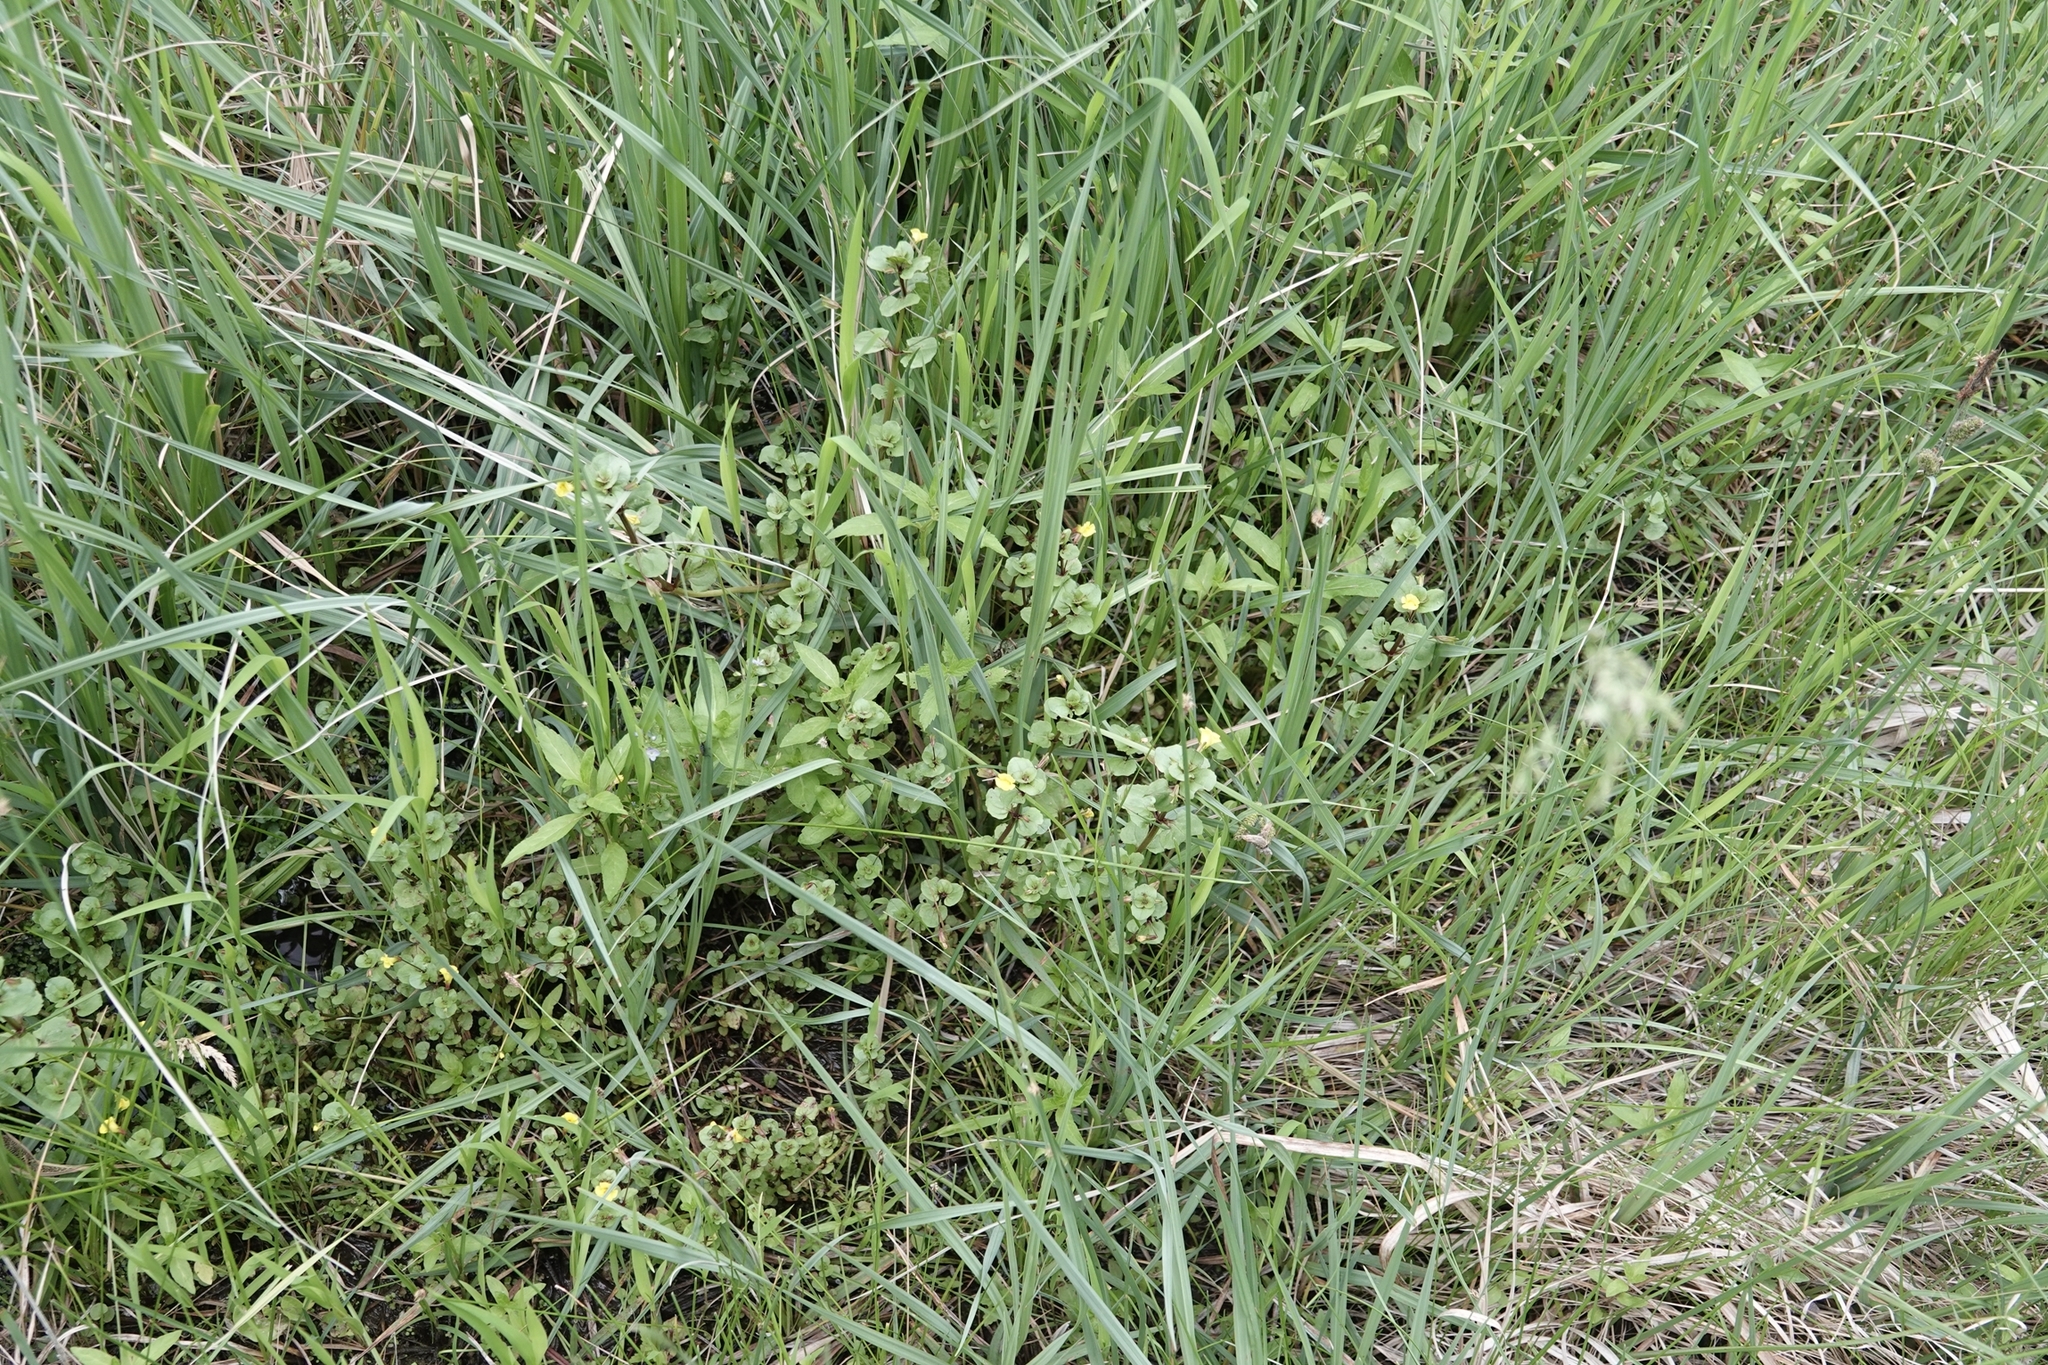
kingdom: Plantae
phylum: Tracheophyta
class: Magnoliopsida
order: Lamiales
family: Phrymaceae
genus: Erythranthe
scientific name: Erythranthe geyeri
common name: Geyer's monkeyflower
